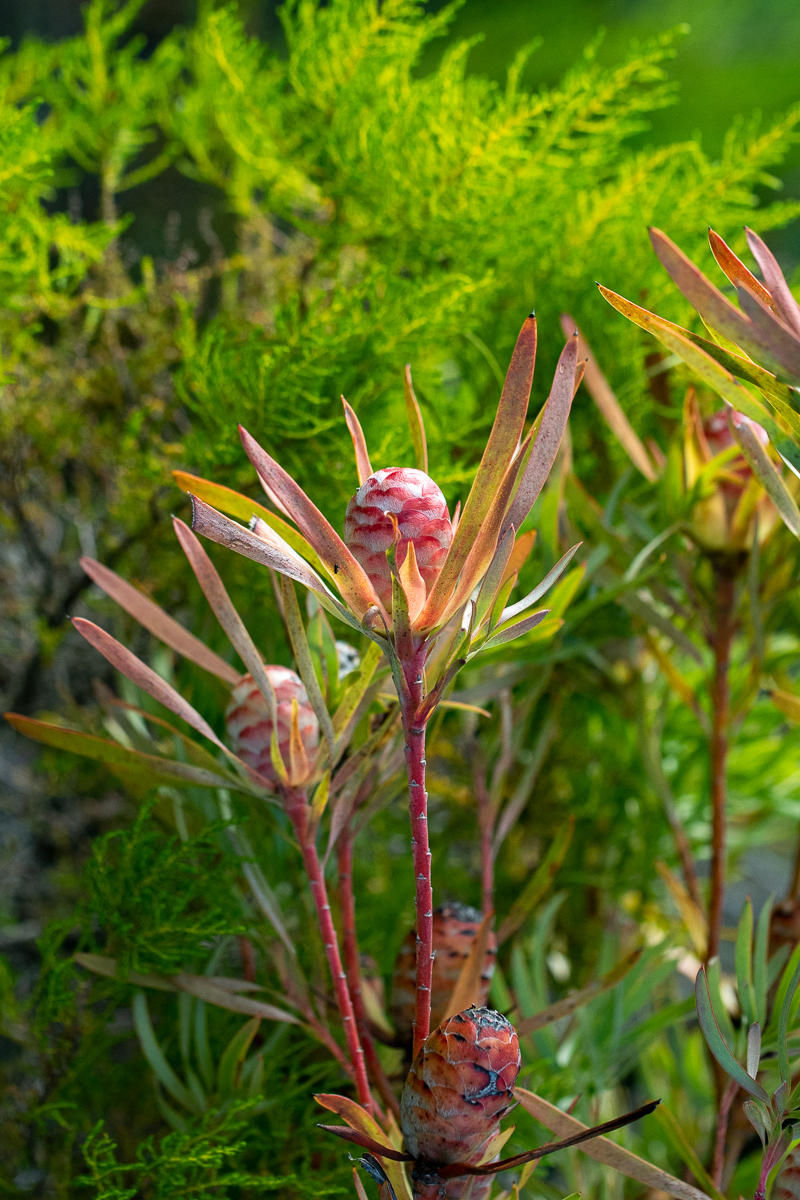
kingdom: Plantae
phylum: Tracheophyta
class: Magnoliopsida
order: Proteales
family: Proteaceae
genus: Leucadendron
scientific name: Leucadendron xanthoconus
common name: Sickle-leaf conebush
